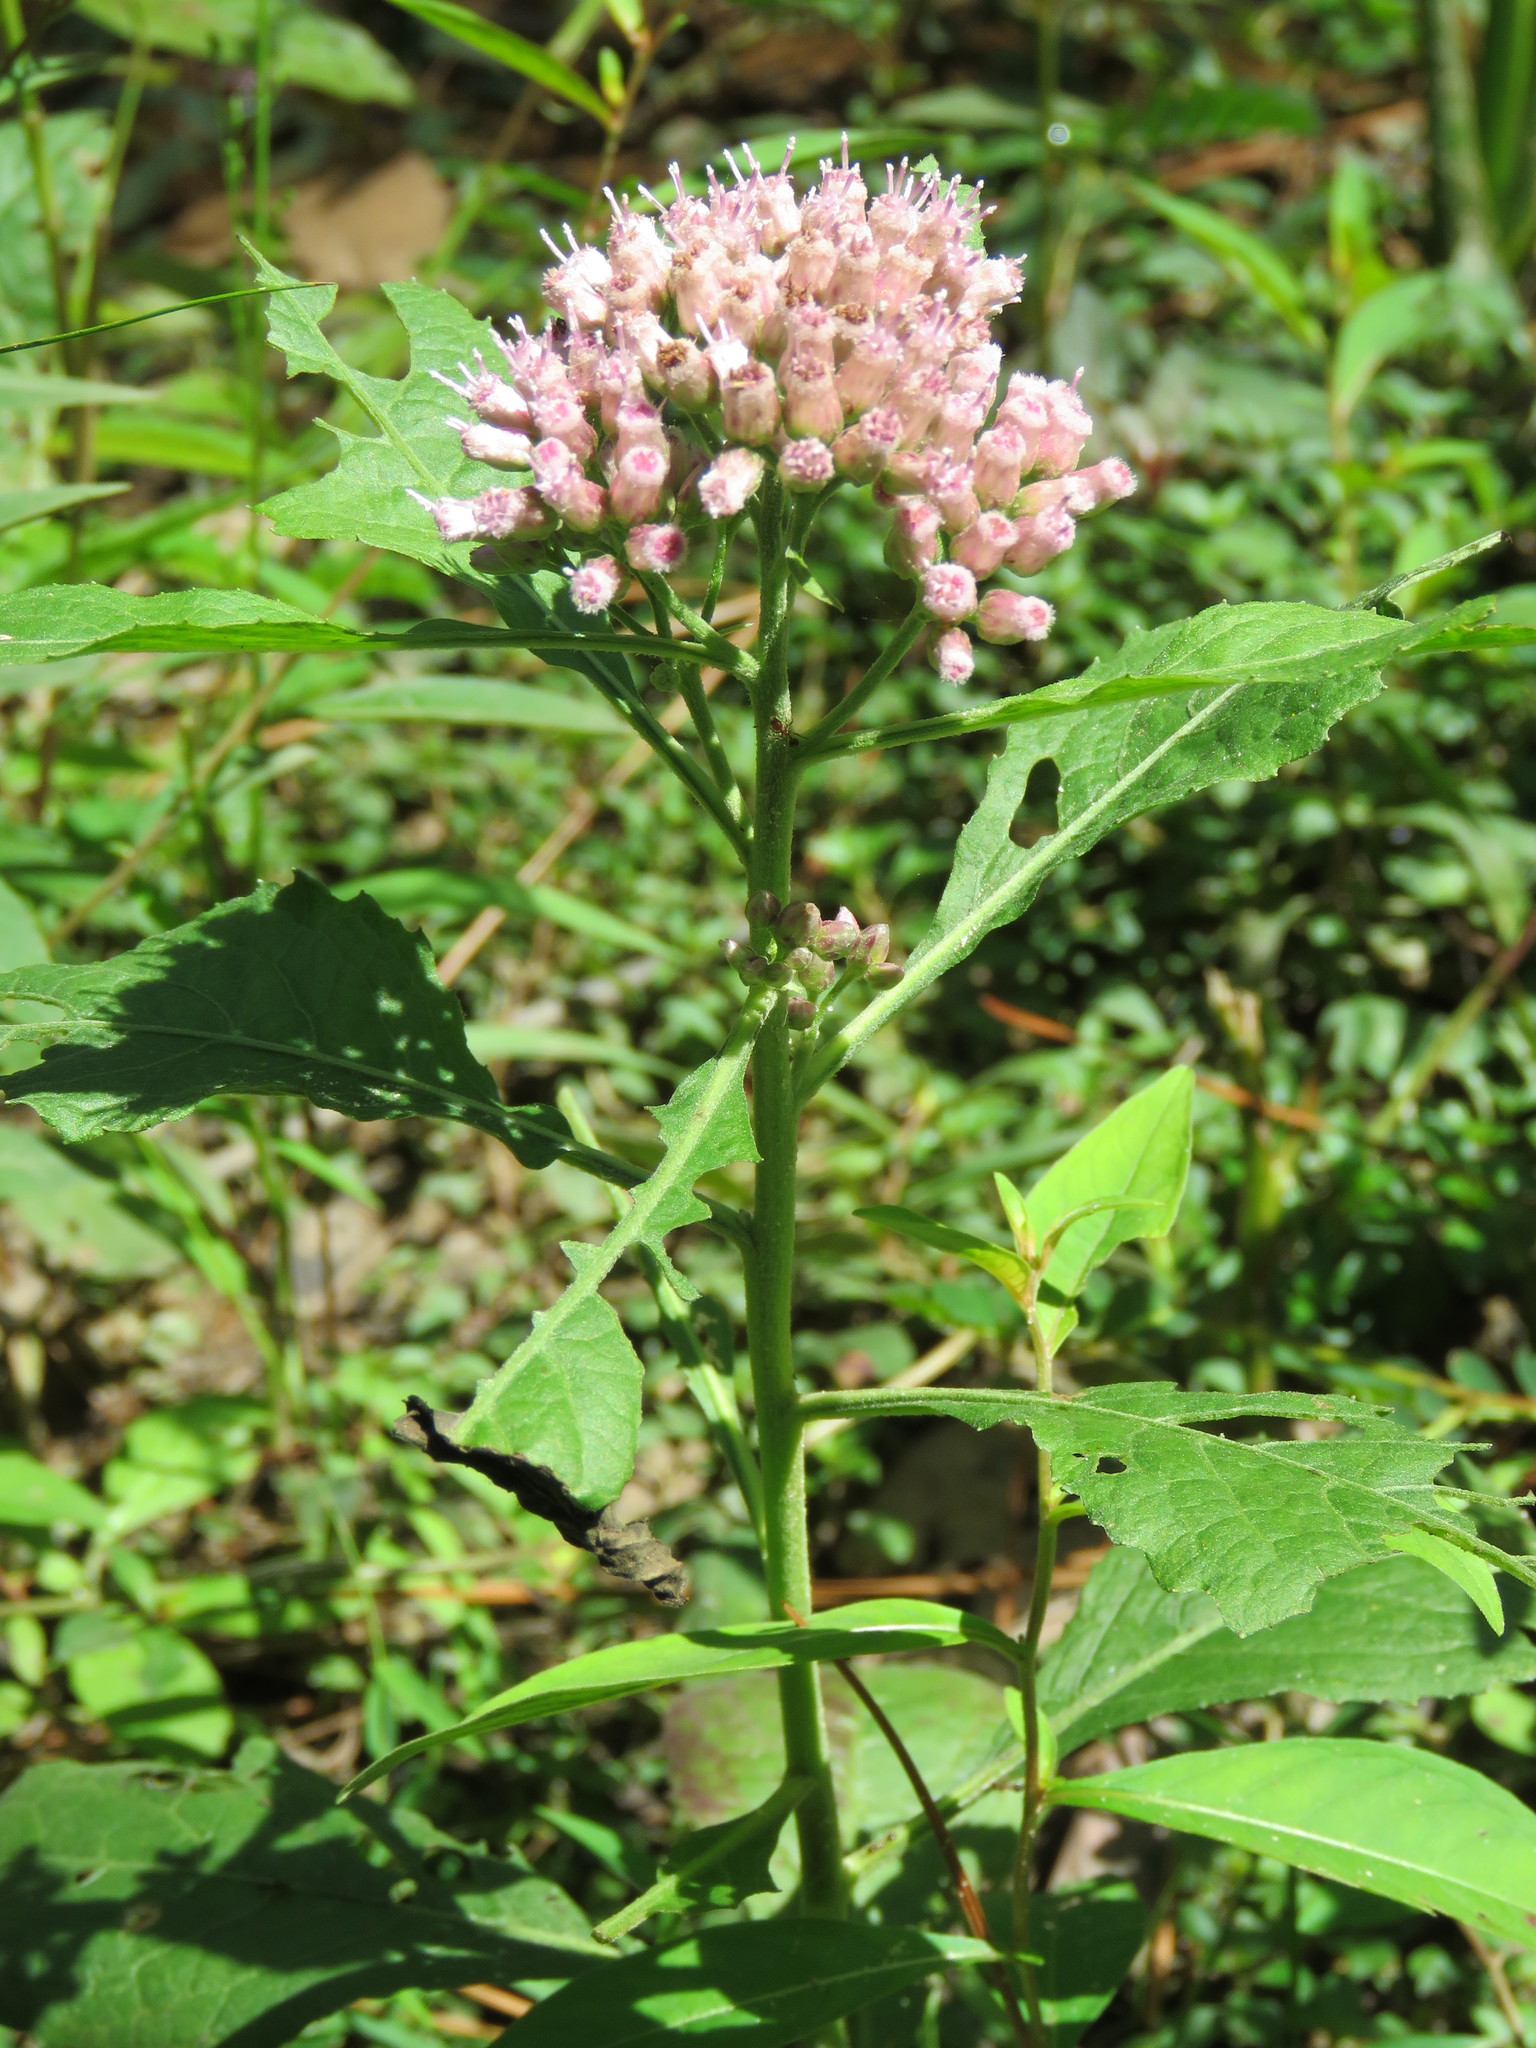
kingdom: Plantae
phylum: Tracheophyta
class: Magnoliopsida
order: Asterales
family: Asteraceae
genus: Pluchea
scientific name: Pluchea odorata
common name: Saltmarsh fleabane
